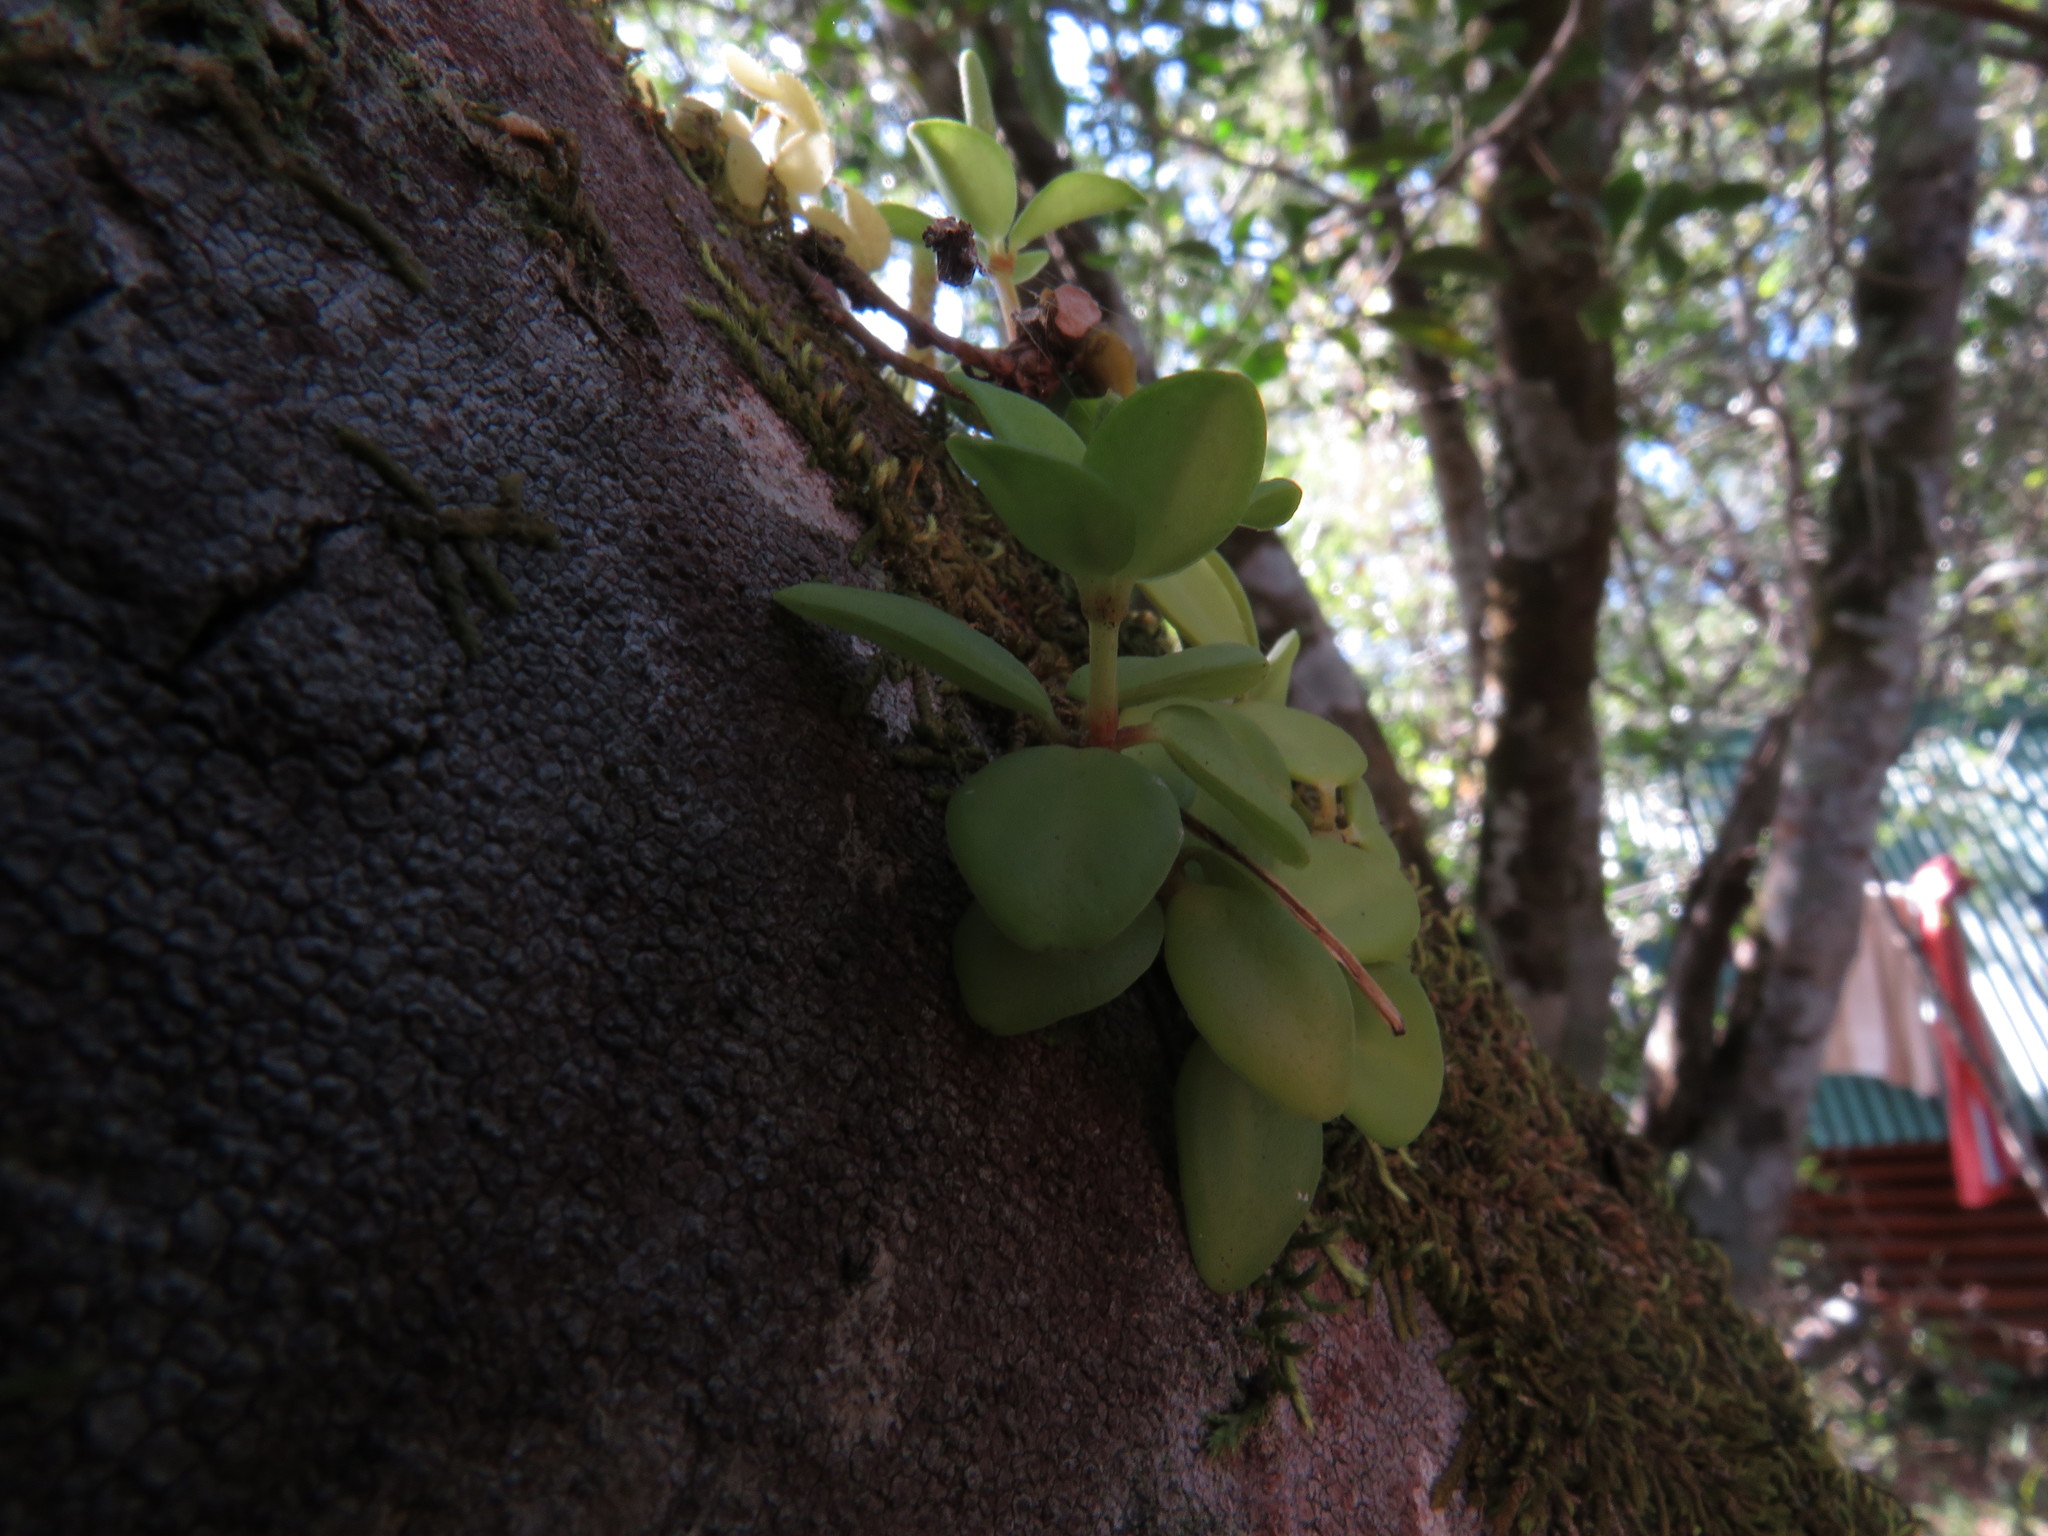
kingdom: Plantae
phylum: Tracheophyta
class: Magnoliopsida
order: Piperales
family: Piperaceae
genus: Peperomia
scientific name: Peperomia tetraphylla
